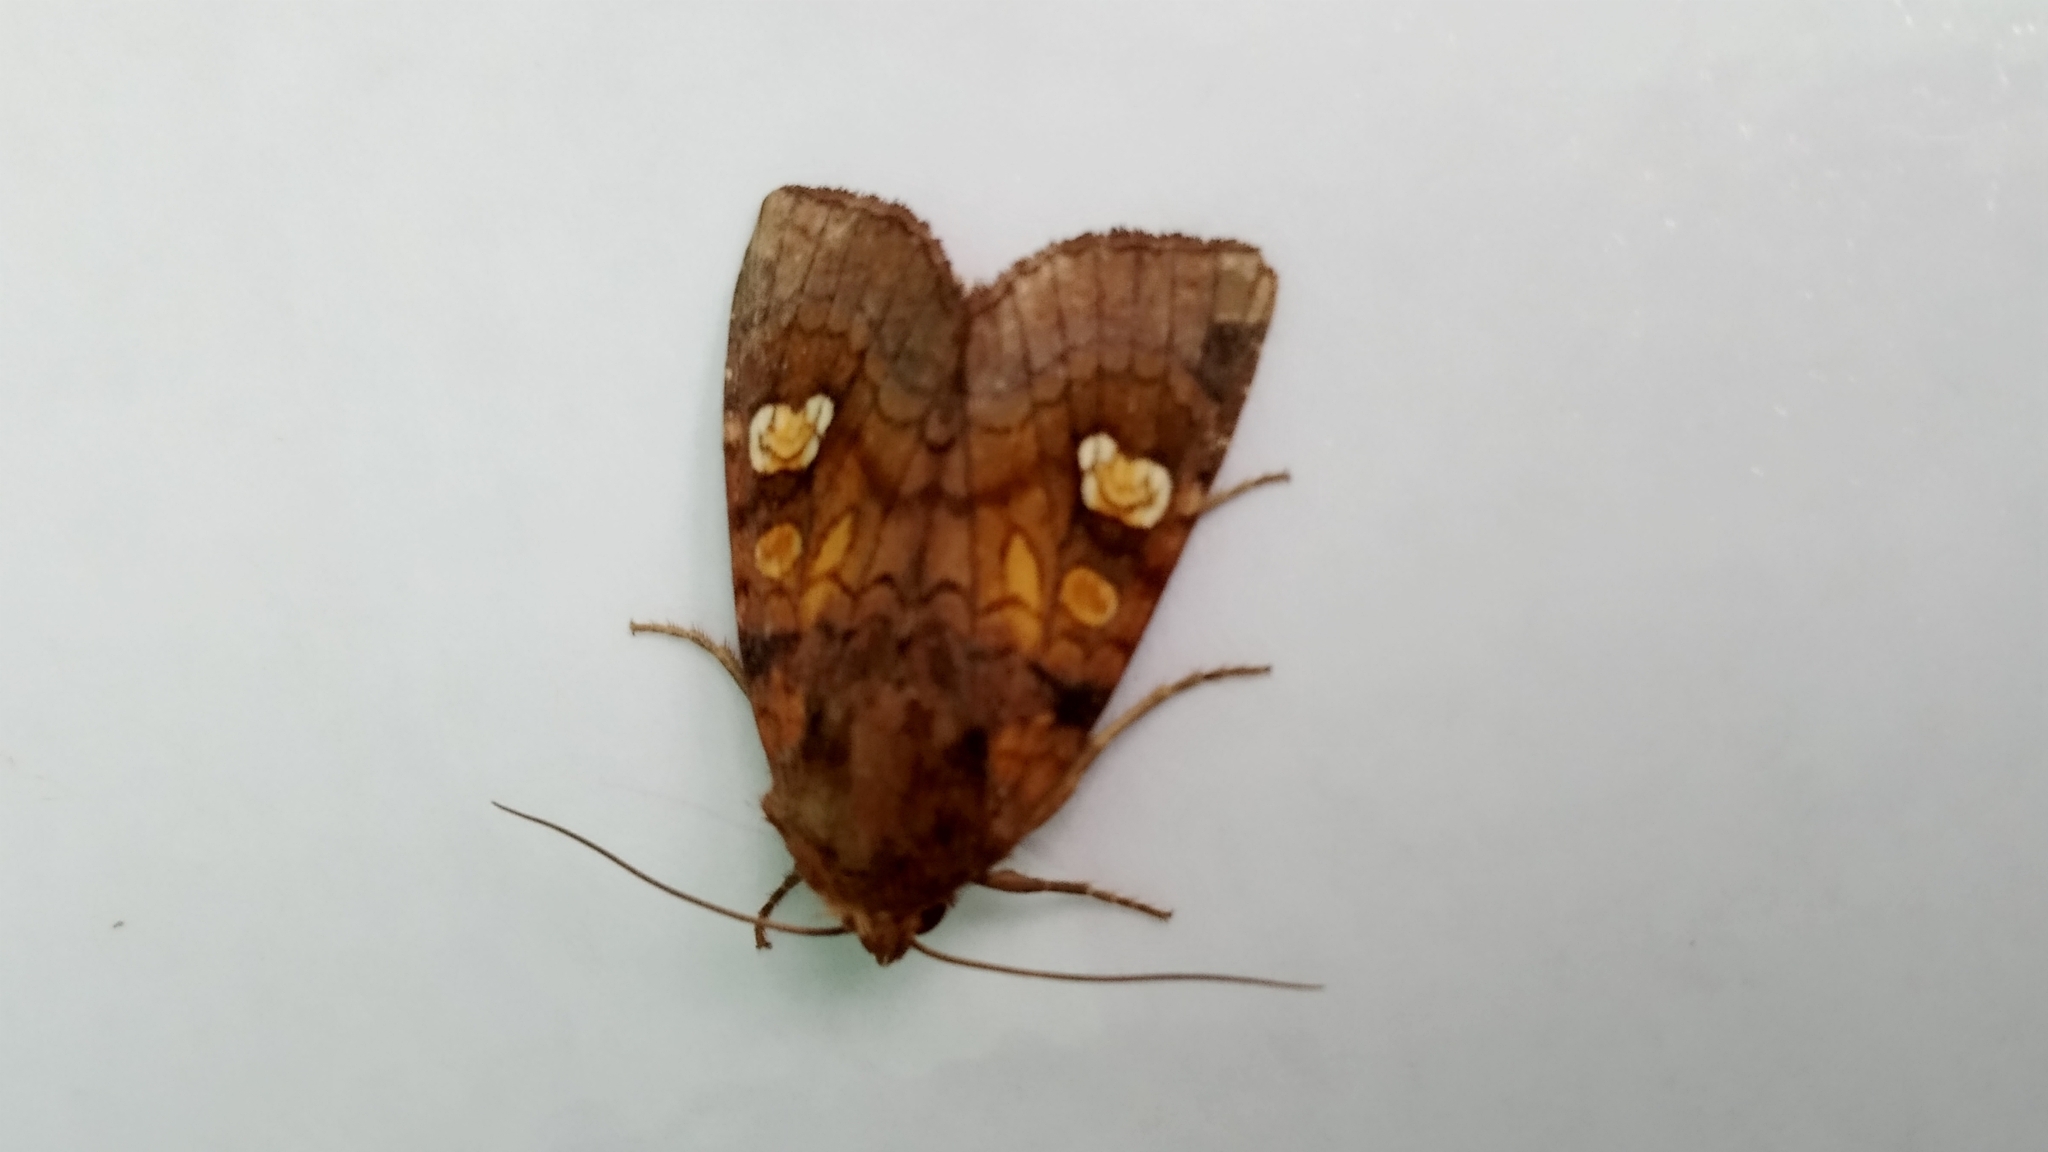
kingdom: Animalia
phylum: Arthropoda
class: Insecta
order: Lepidoptera
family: Noctuidae
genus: Amphipoea
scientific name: Amphipoea oculea
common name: Ear moth
